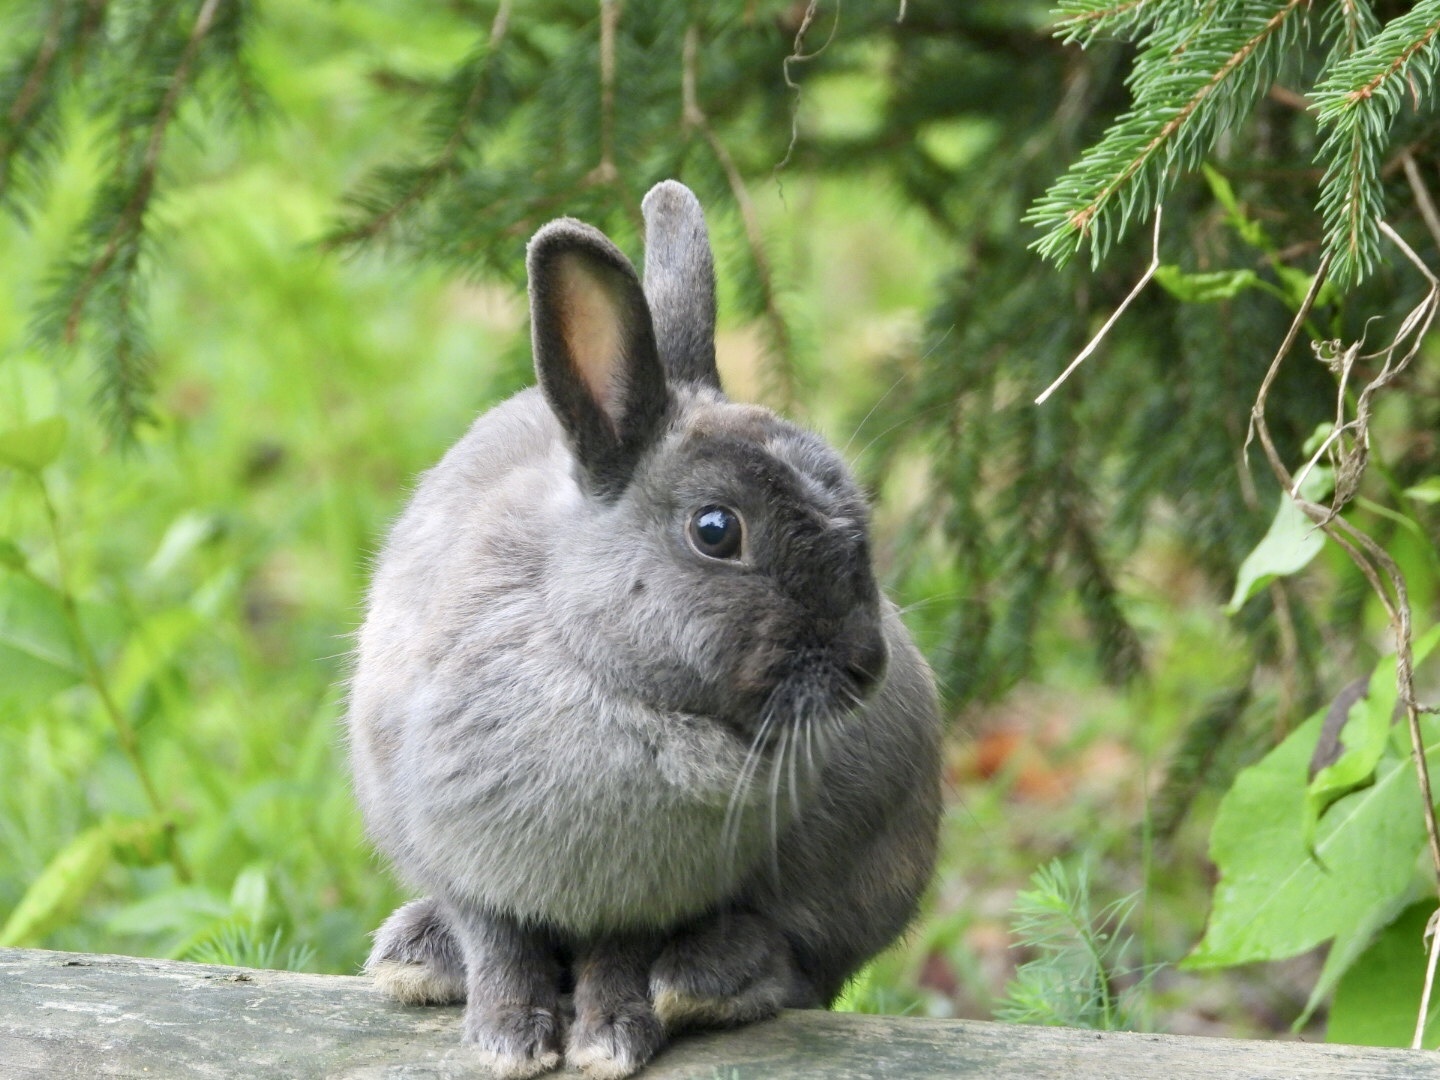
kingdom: Animalia
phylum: Chordata
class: Mammalia
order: Lagomorpha
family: Leporidae
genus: Oryctolagus
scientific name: Oryctolagus cuniculus
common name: European rabbit
